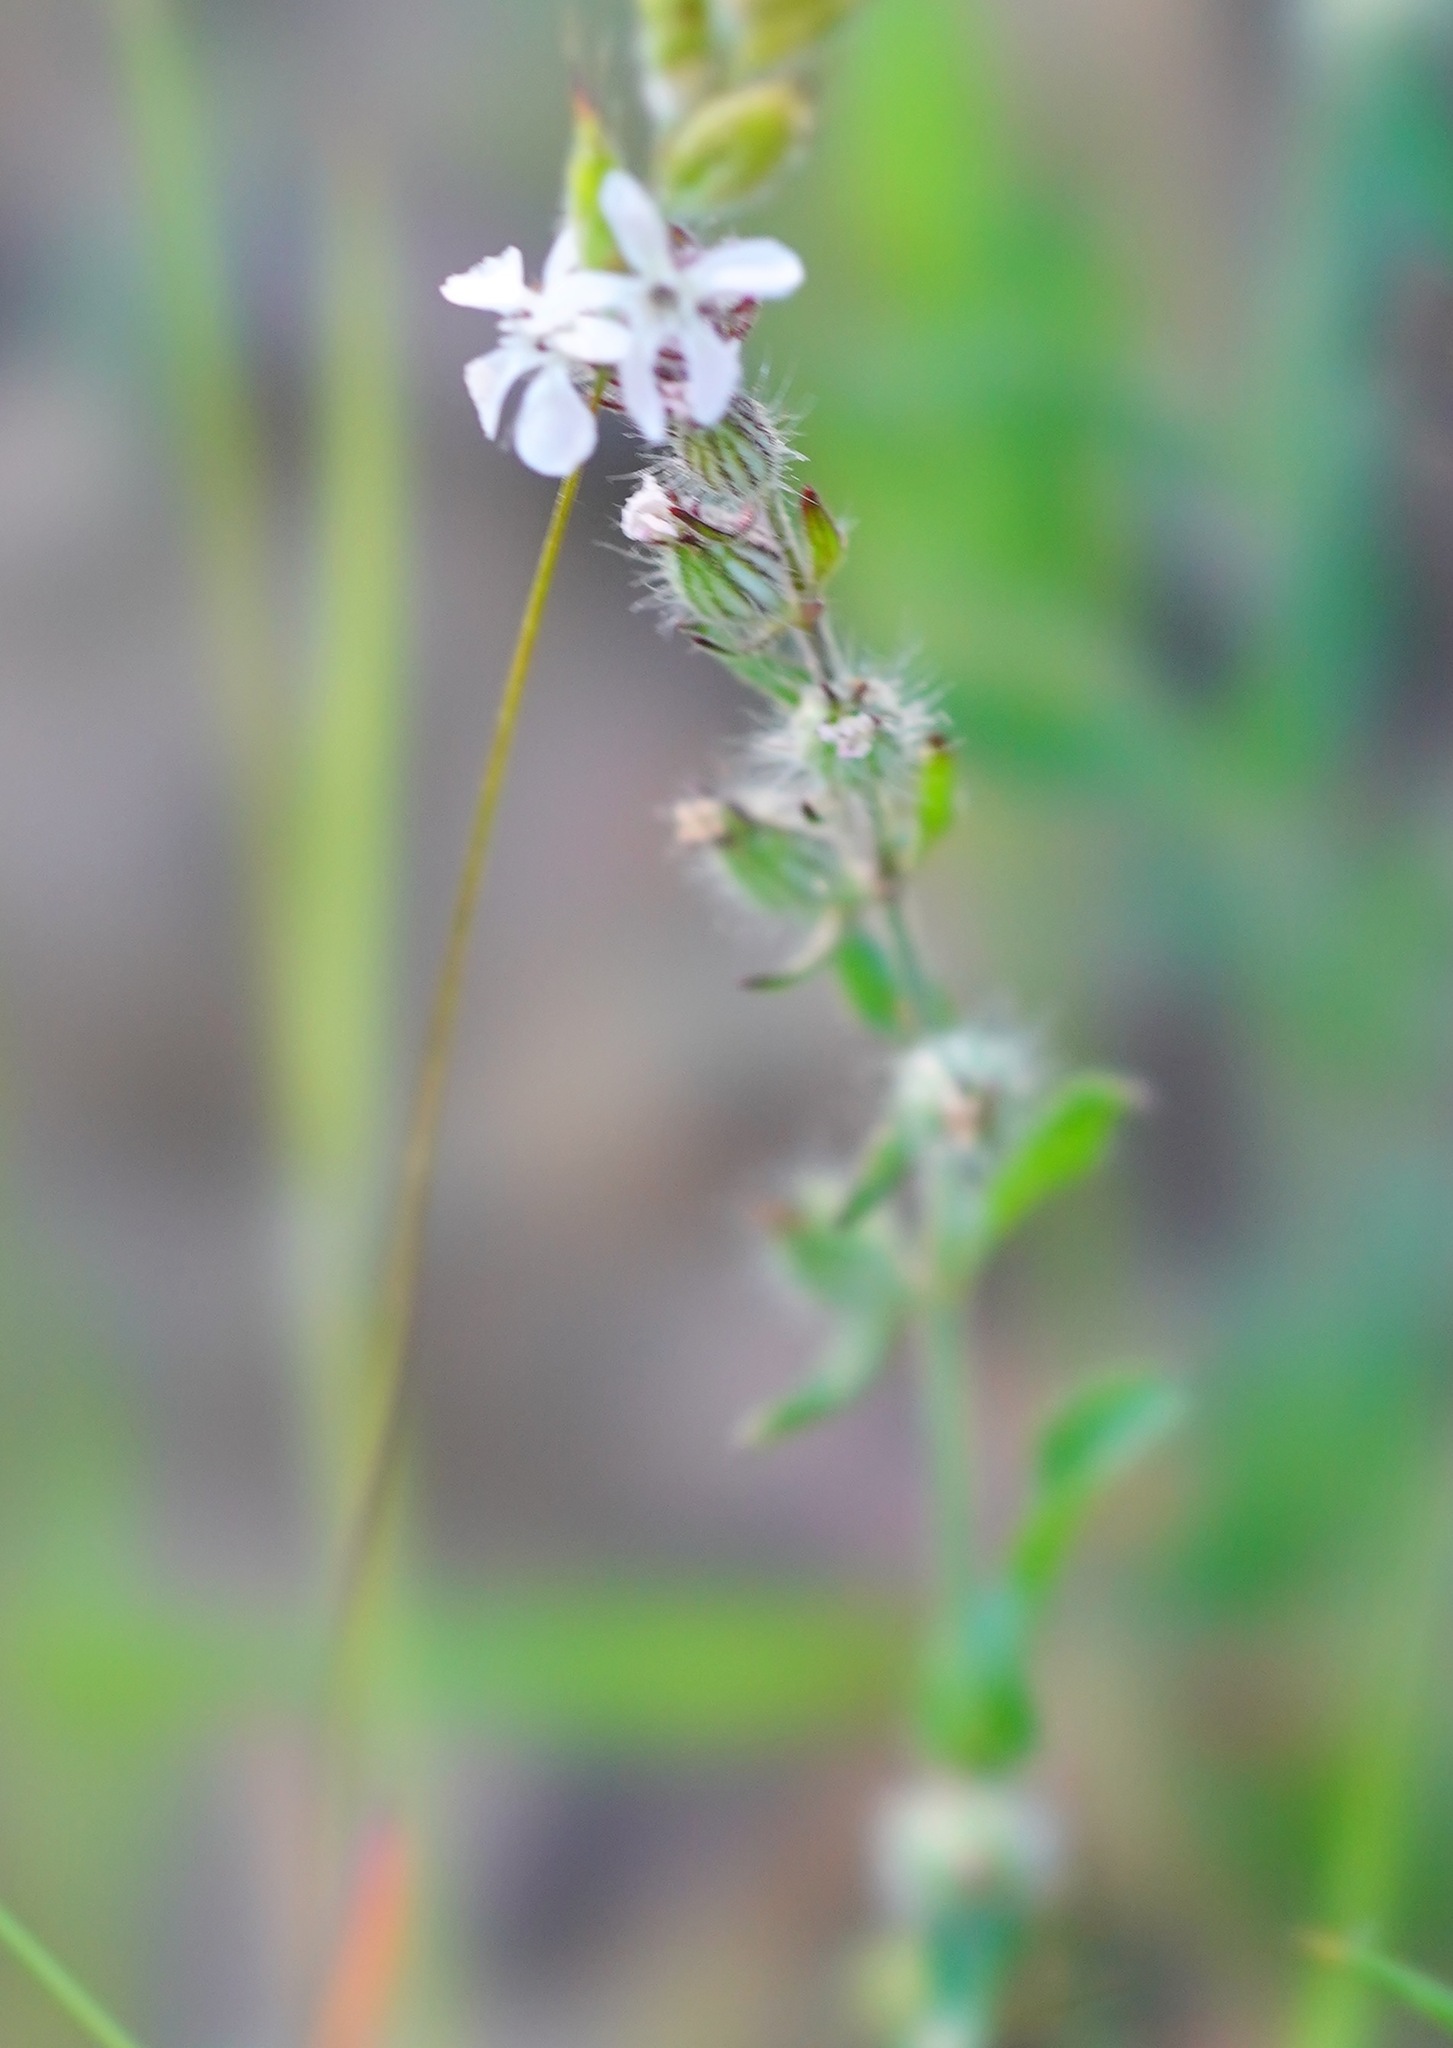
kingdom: Plantae
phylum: Tracheophyta
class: Magnoliopsida
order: Caryophyllales
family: Caryophyllaceae
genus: Silene
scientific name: Silene gallica
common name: Small-flowered catchfly
